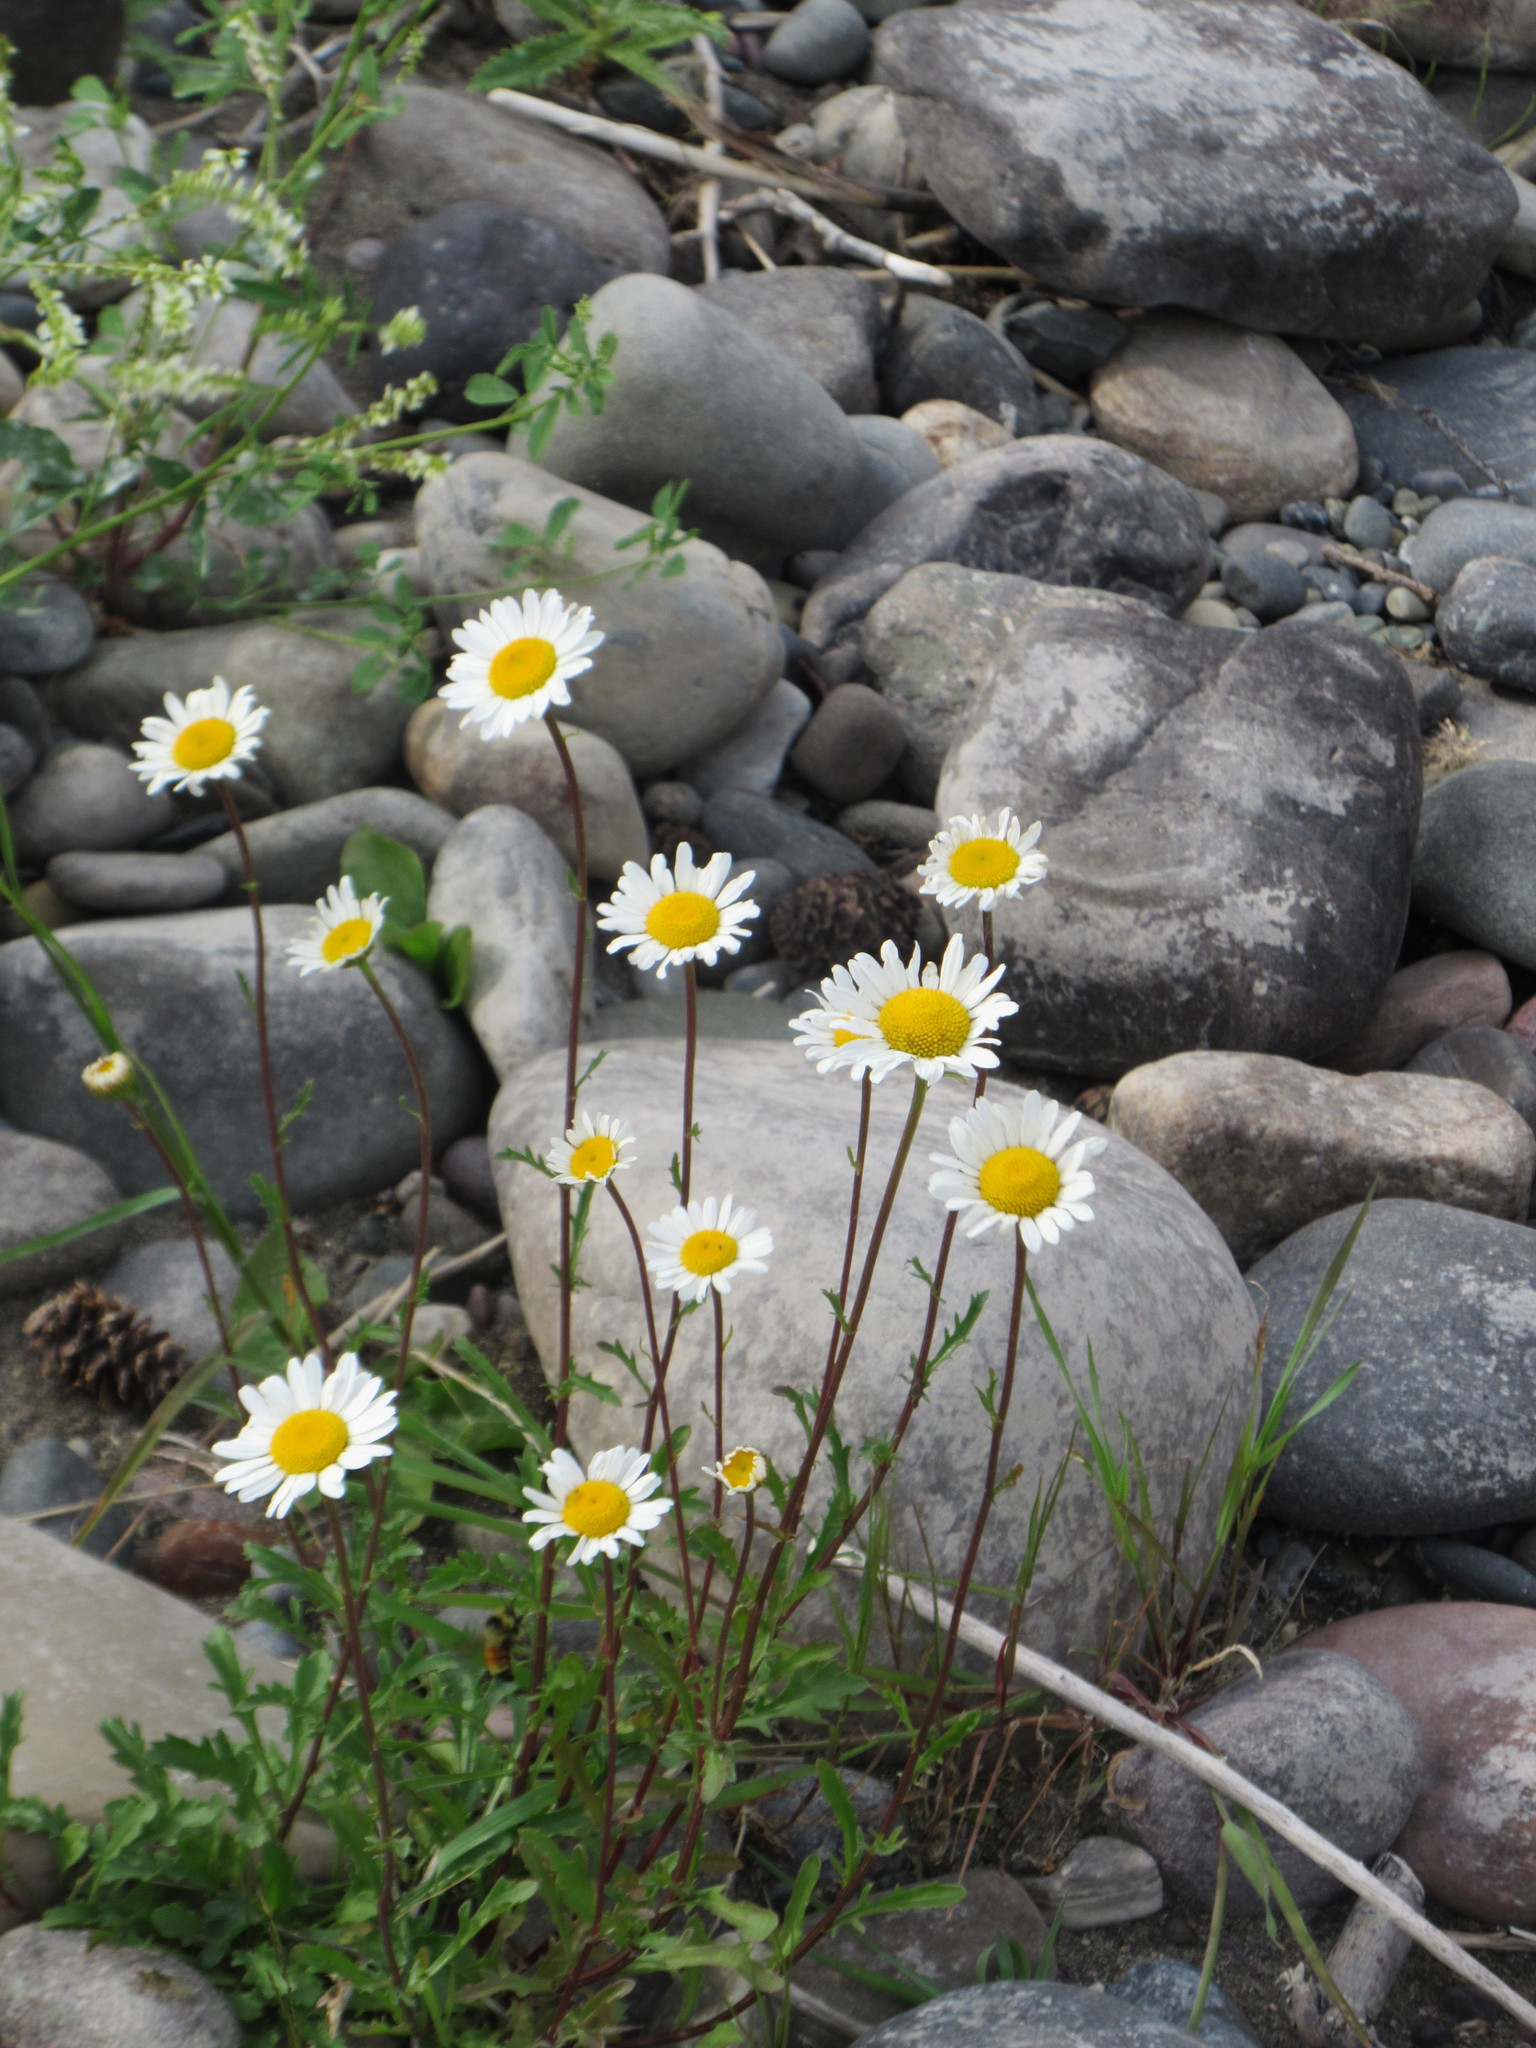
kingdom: Plantae
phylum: Tracheophyta
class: Magnoliopsida
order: Asterales
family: Asteraceae
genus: Leucanthemum
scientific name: Leucanthemum vulgare
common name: Oxeye daisy
